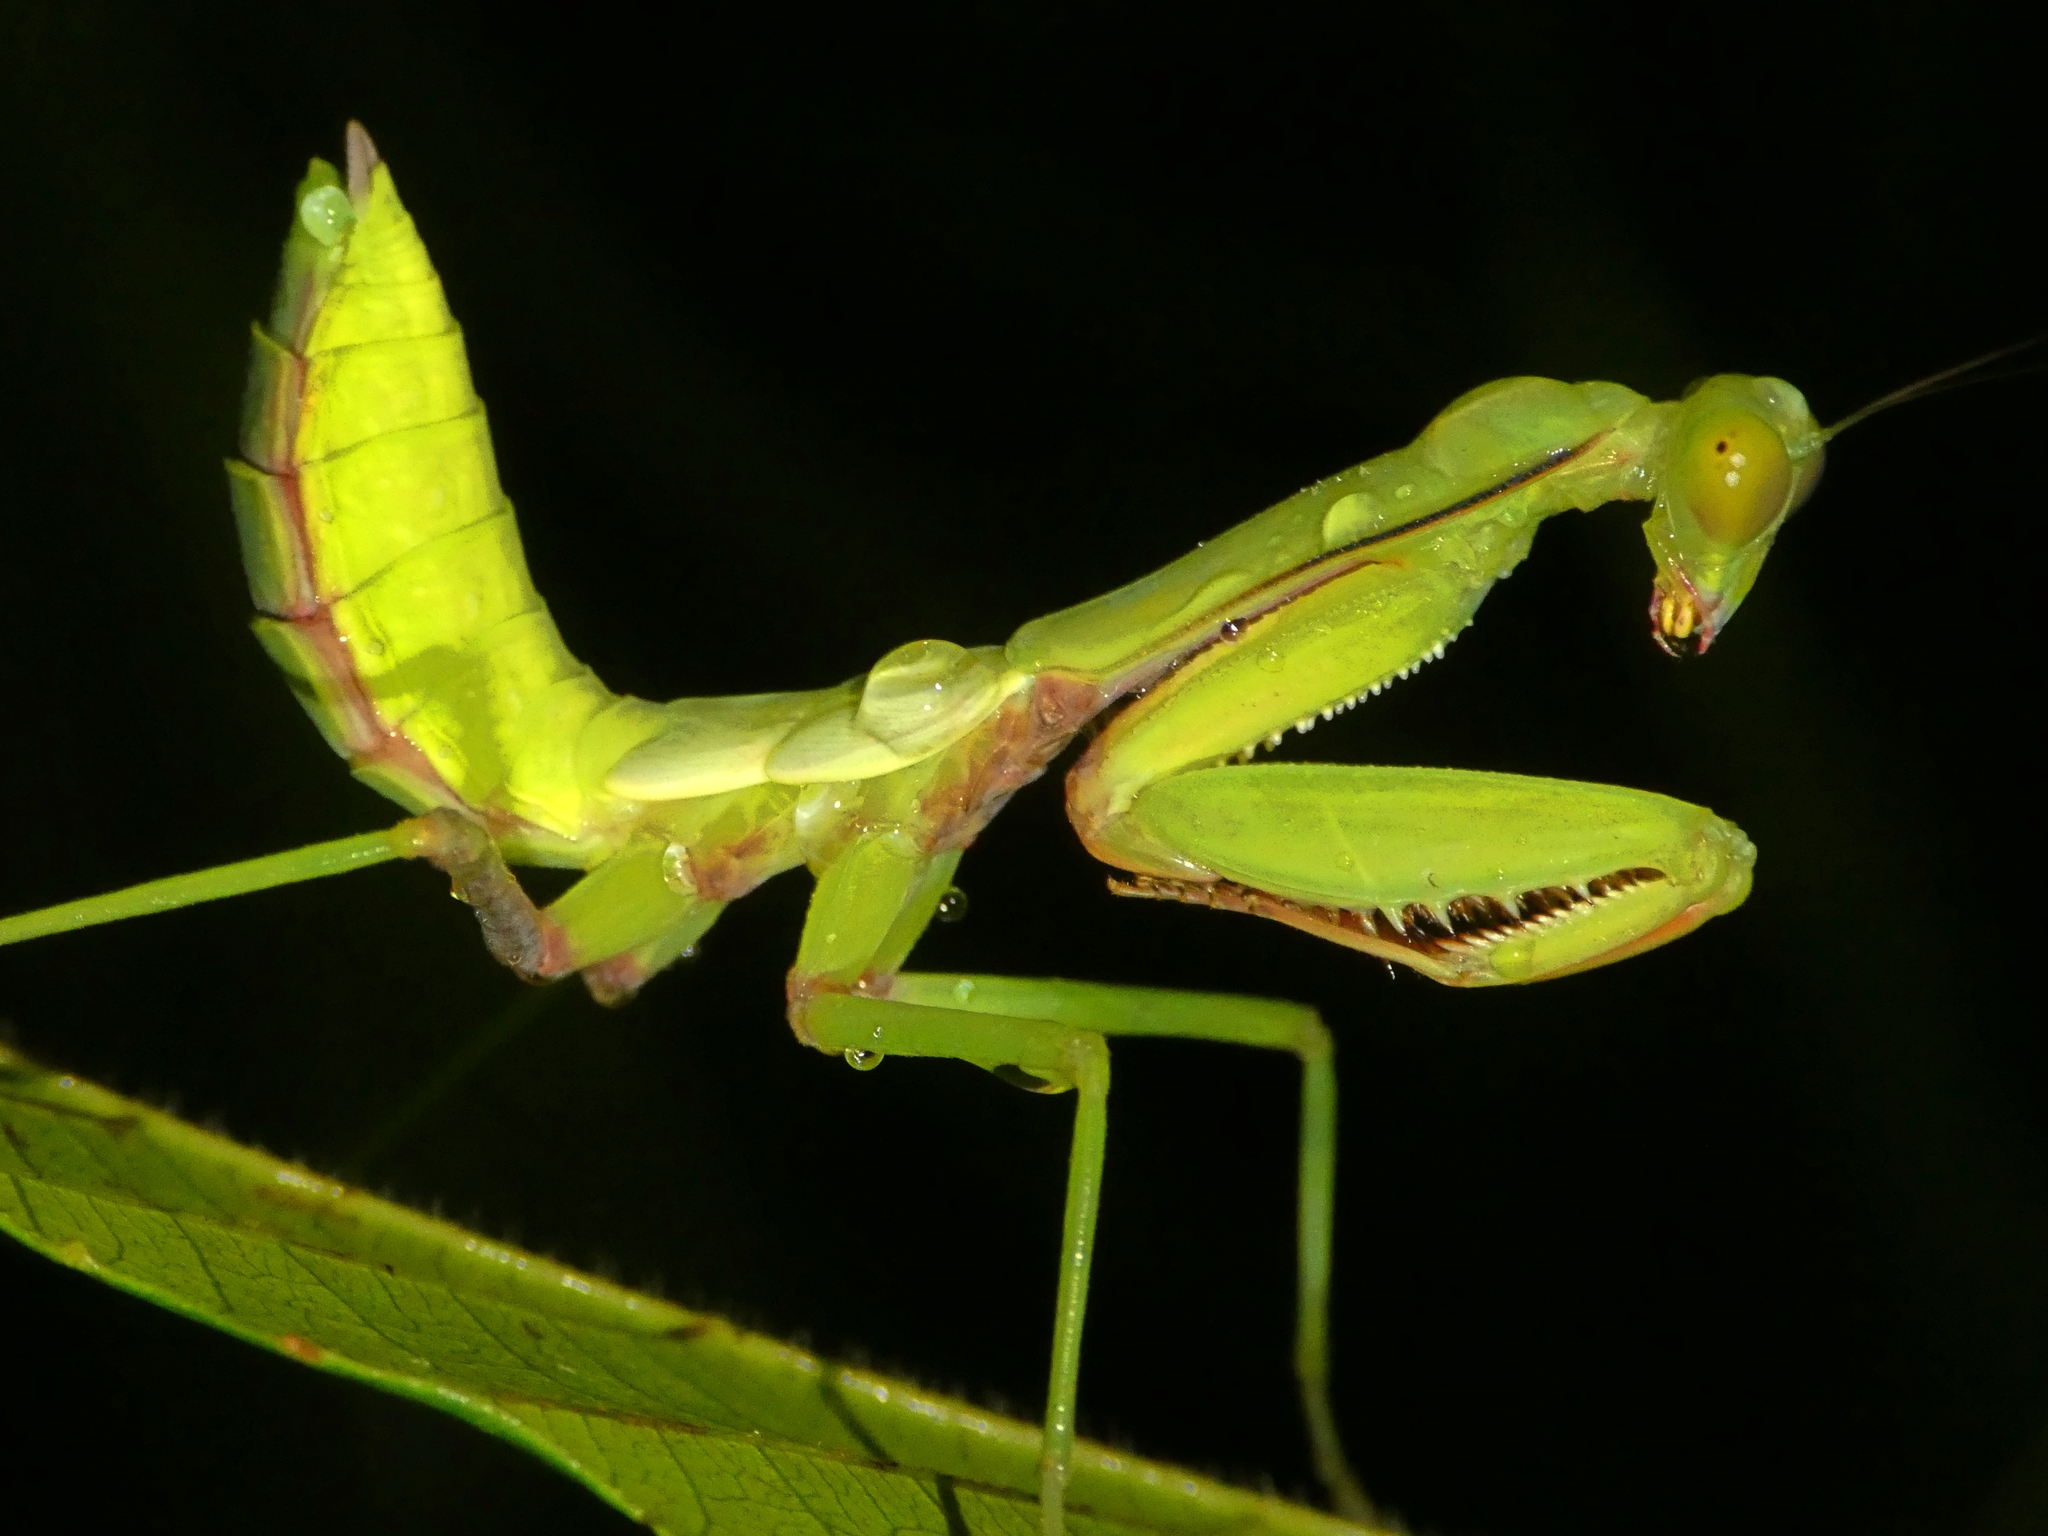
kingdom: Animalia
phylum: Arthropoda
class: Insecta
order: Mantodea
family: Mantidae
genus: Hierodula
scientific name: Hierodula majuscula
